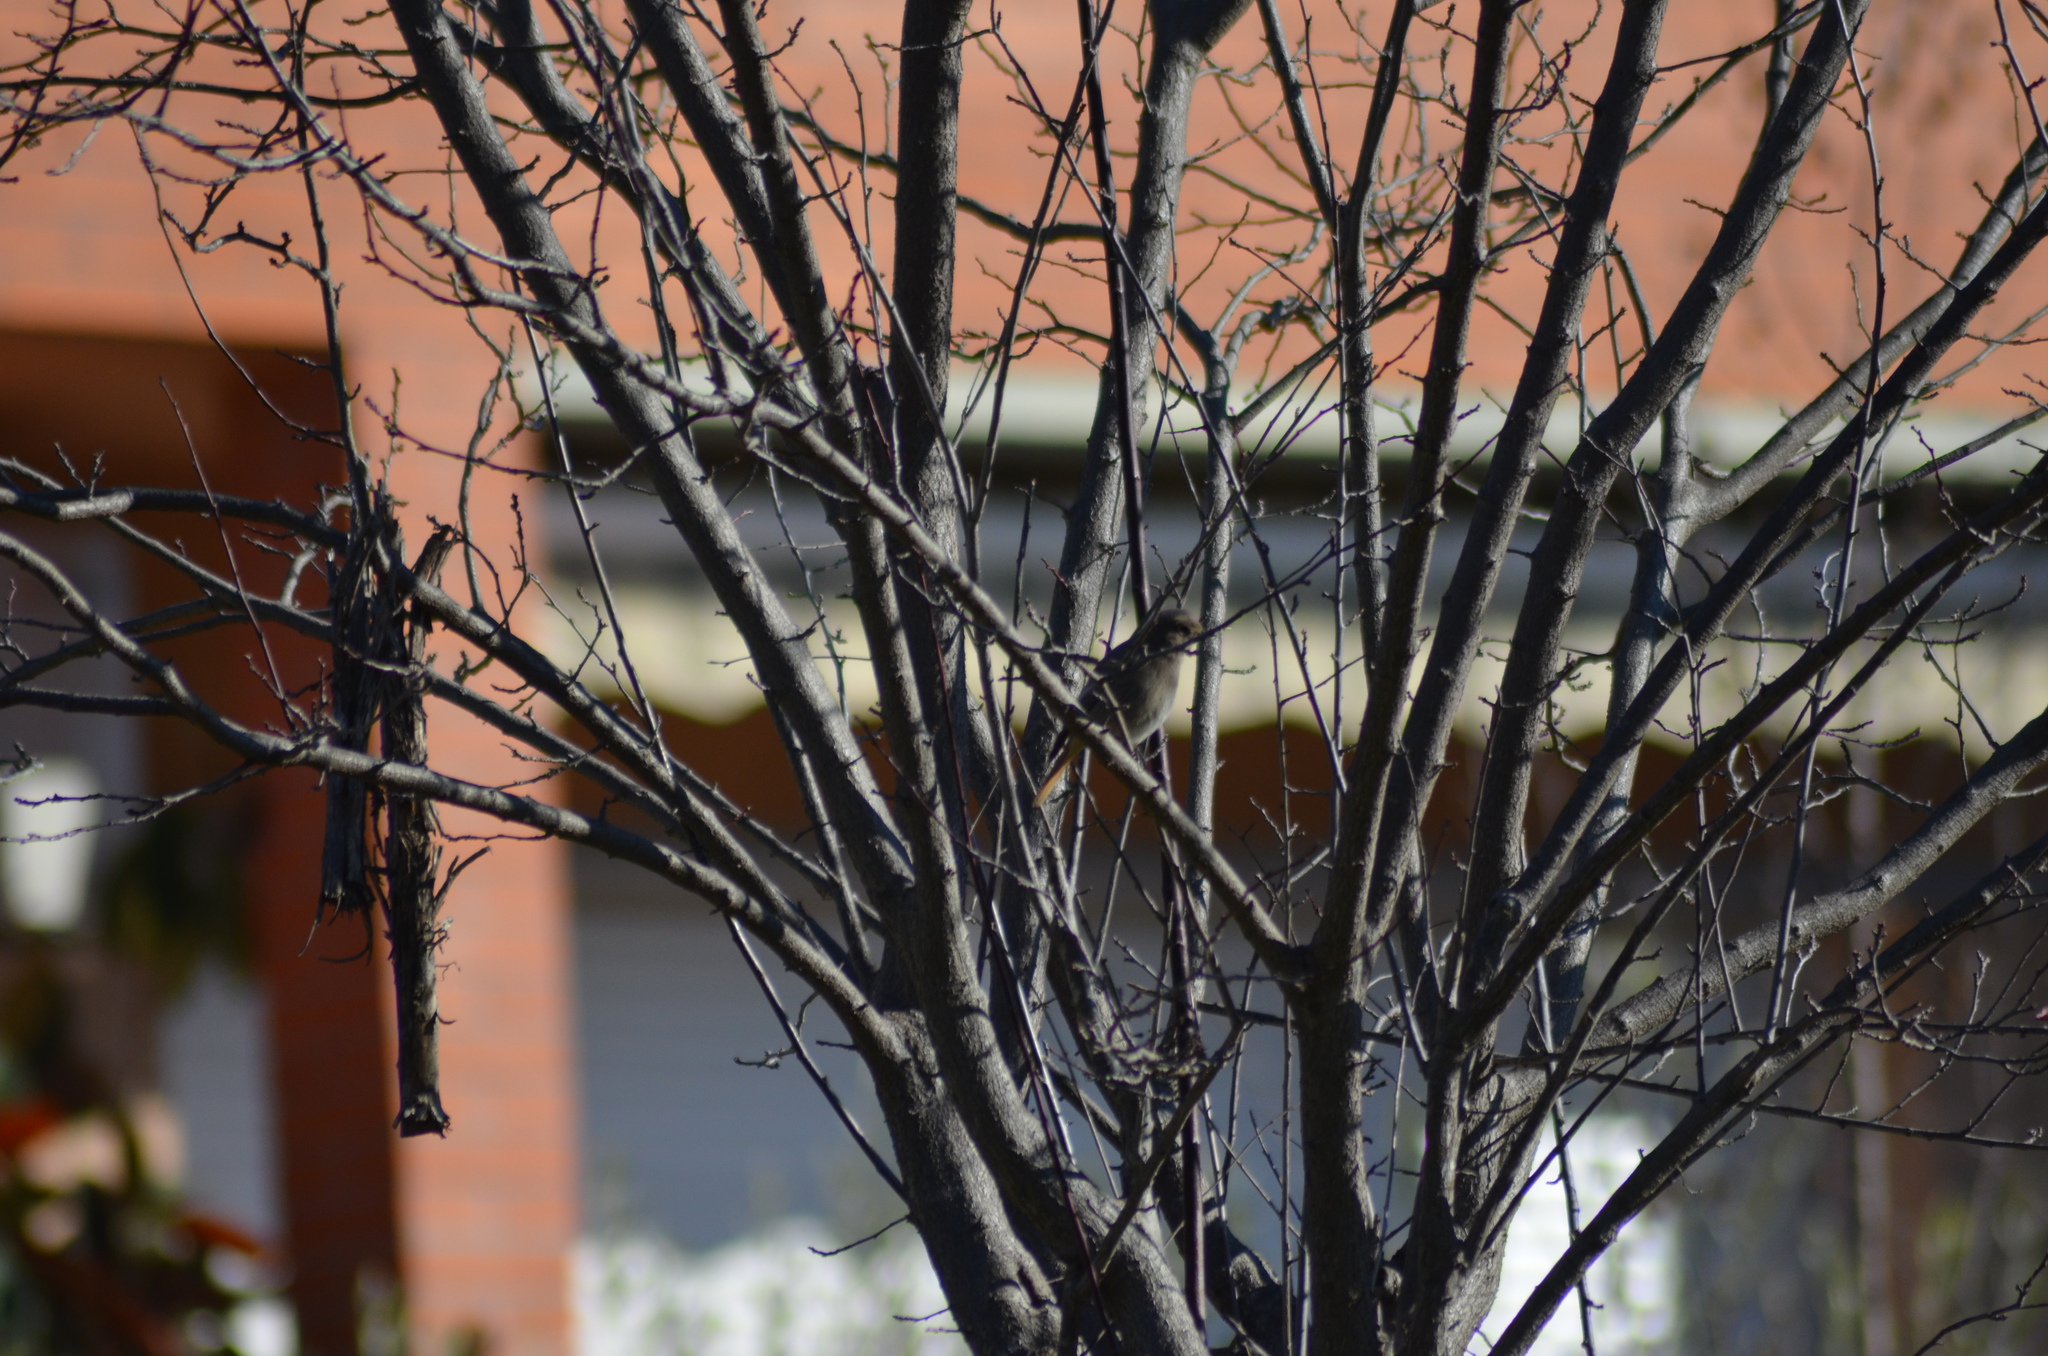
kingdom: Animalia
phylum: Chordata
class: Aves
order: Passeriformes
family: Muscicapidae
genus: Phoenicurus
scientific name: Phoenicurus ochruros
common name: Black redstart
